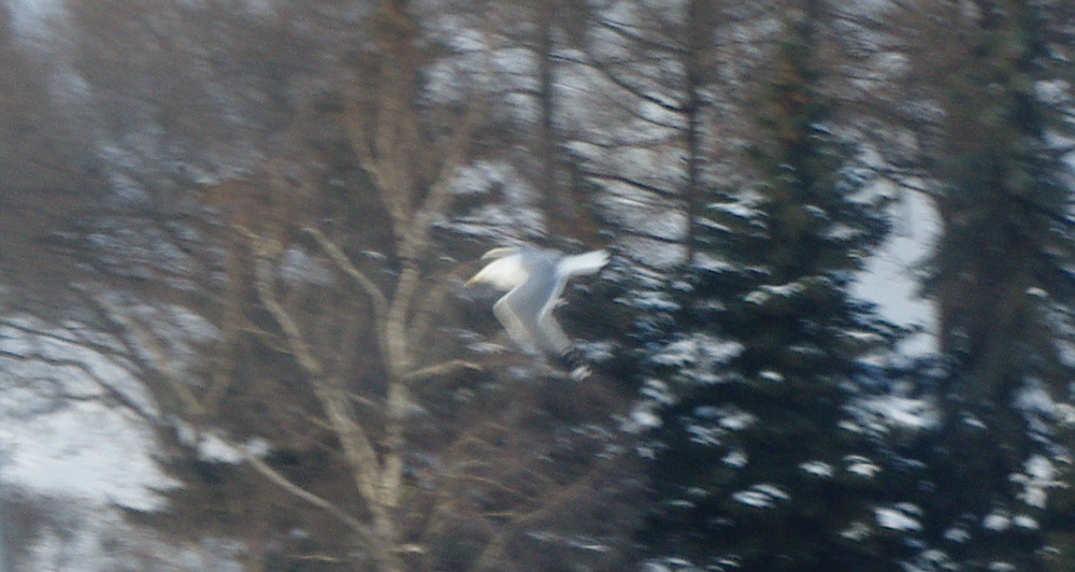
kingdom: Animalia
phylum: Chordata
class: Aves
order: Charadriiformes
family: Laridae
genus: Larus
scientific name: Larus canus
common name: Mew gull
